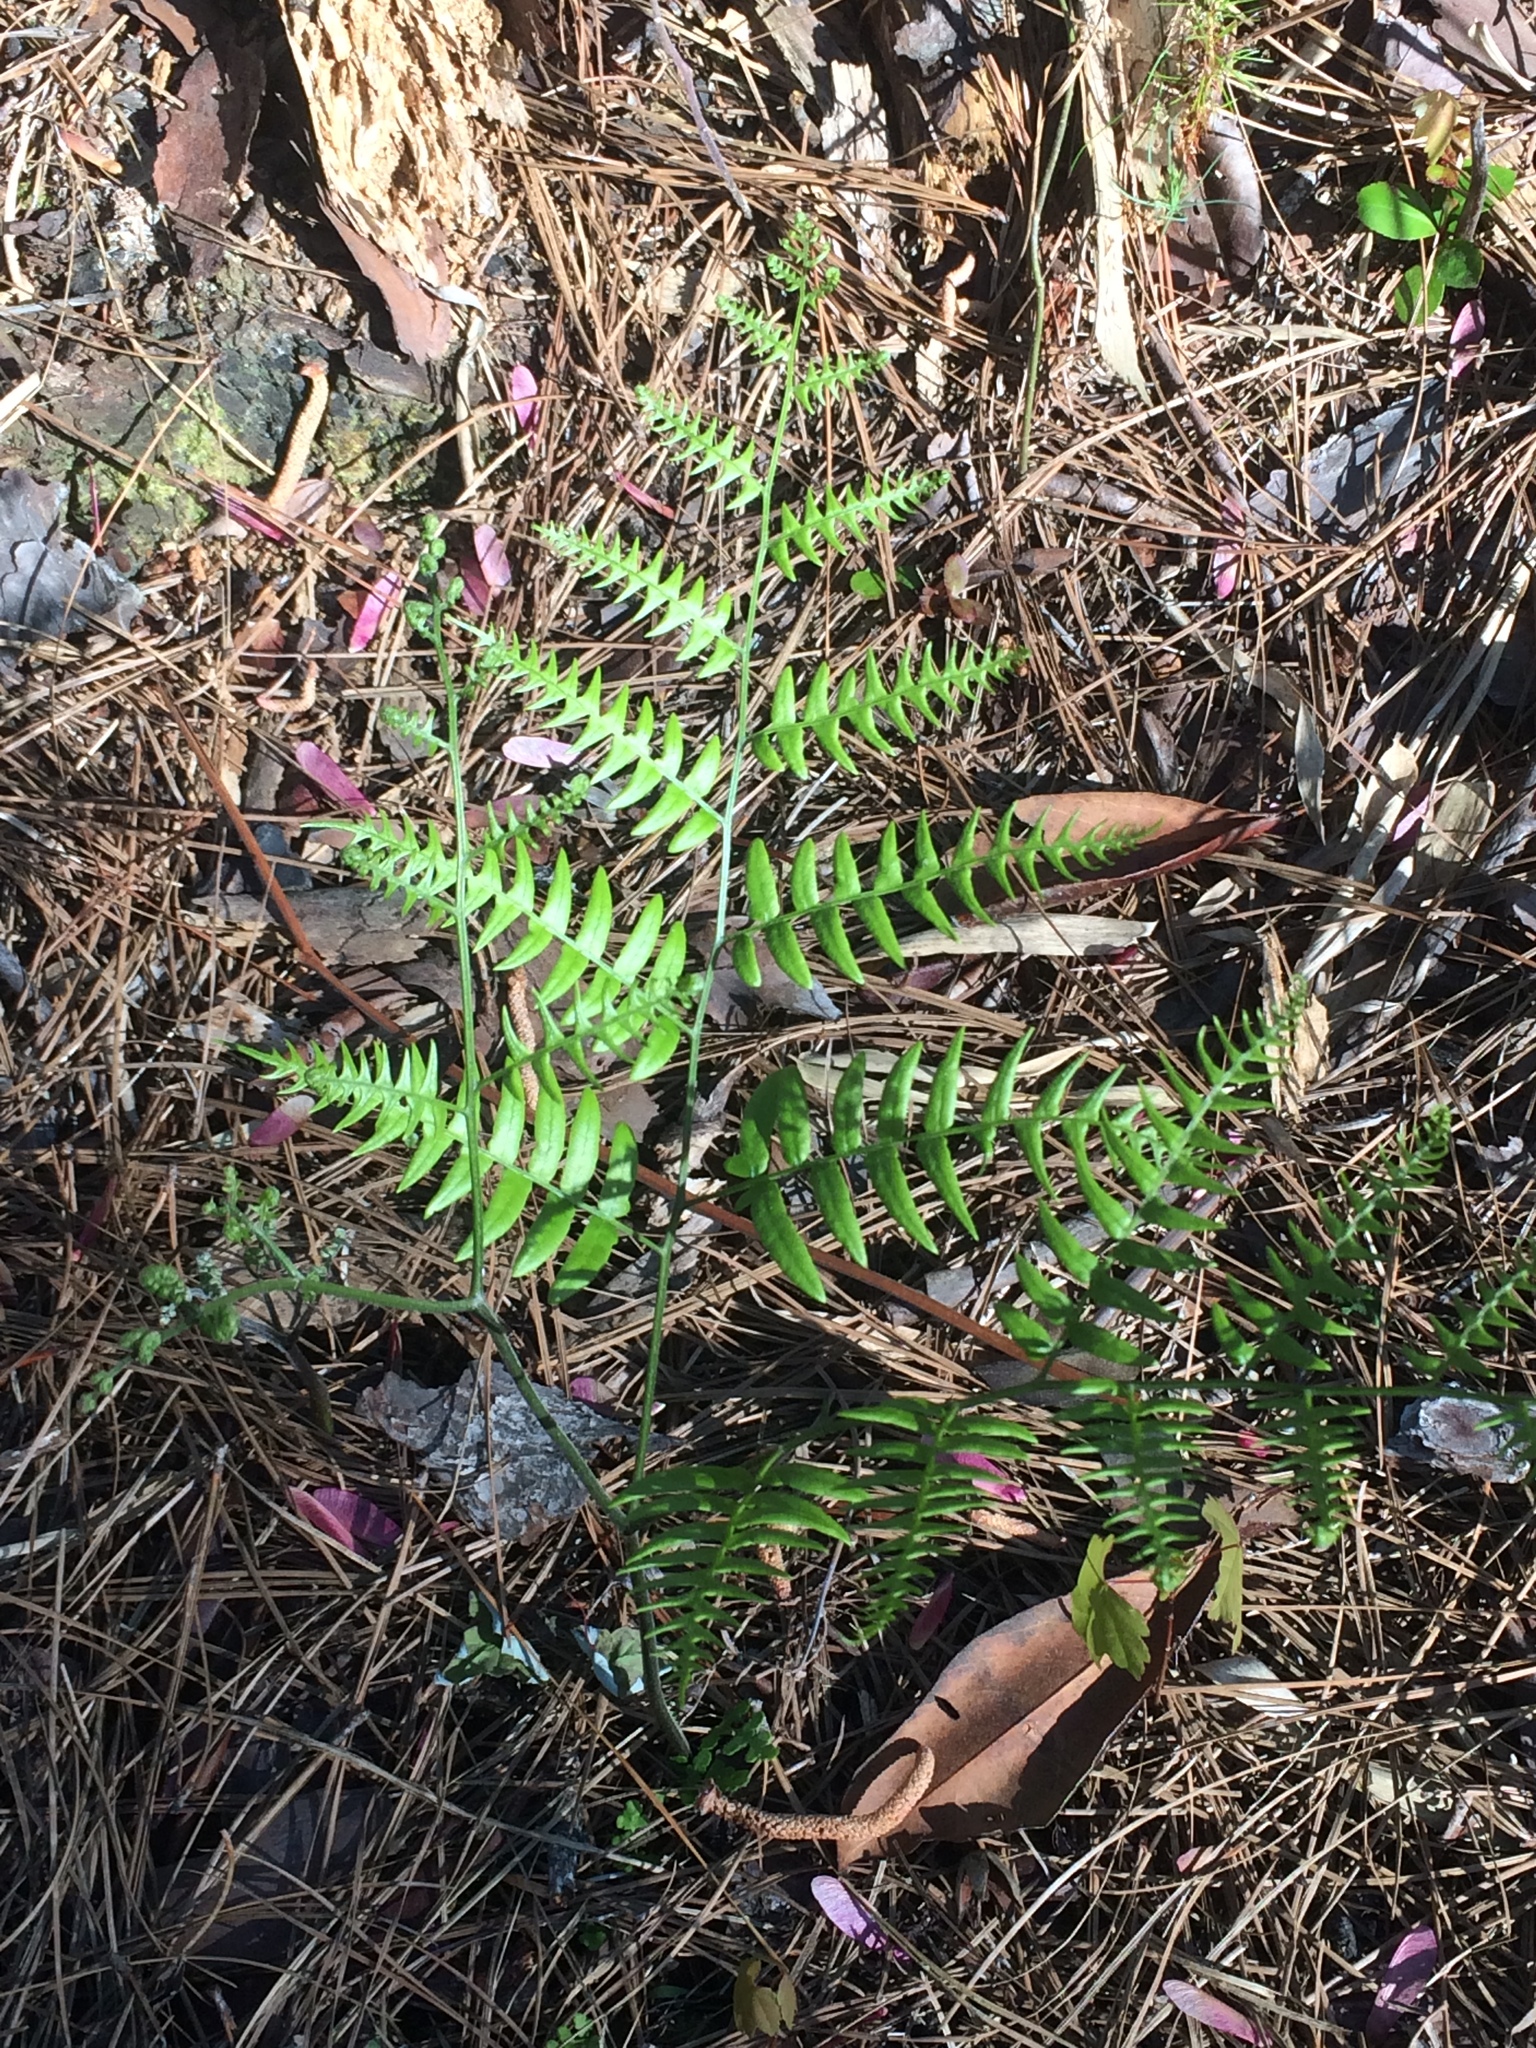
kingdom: Plantae
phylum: Tracheophyta
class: Polypodiopsida
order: Polypodiales
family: Dennstaedtiaceae
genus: Pteridium
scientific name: Pteridium
